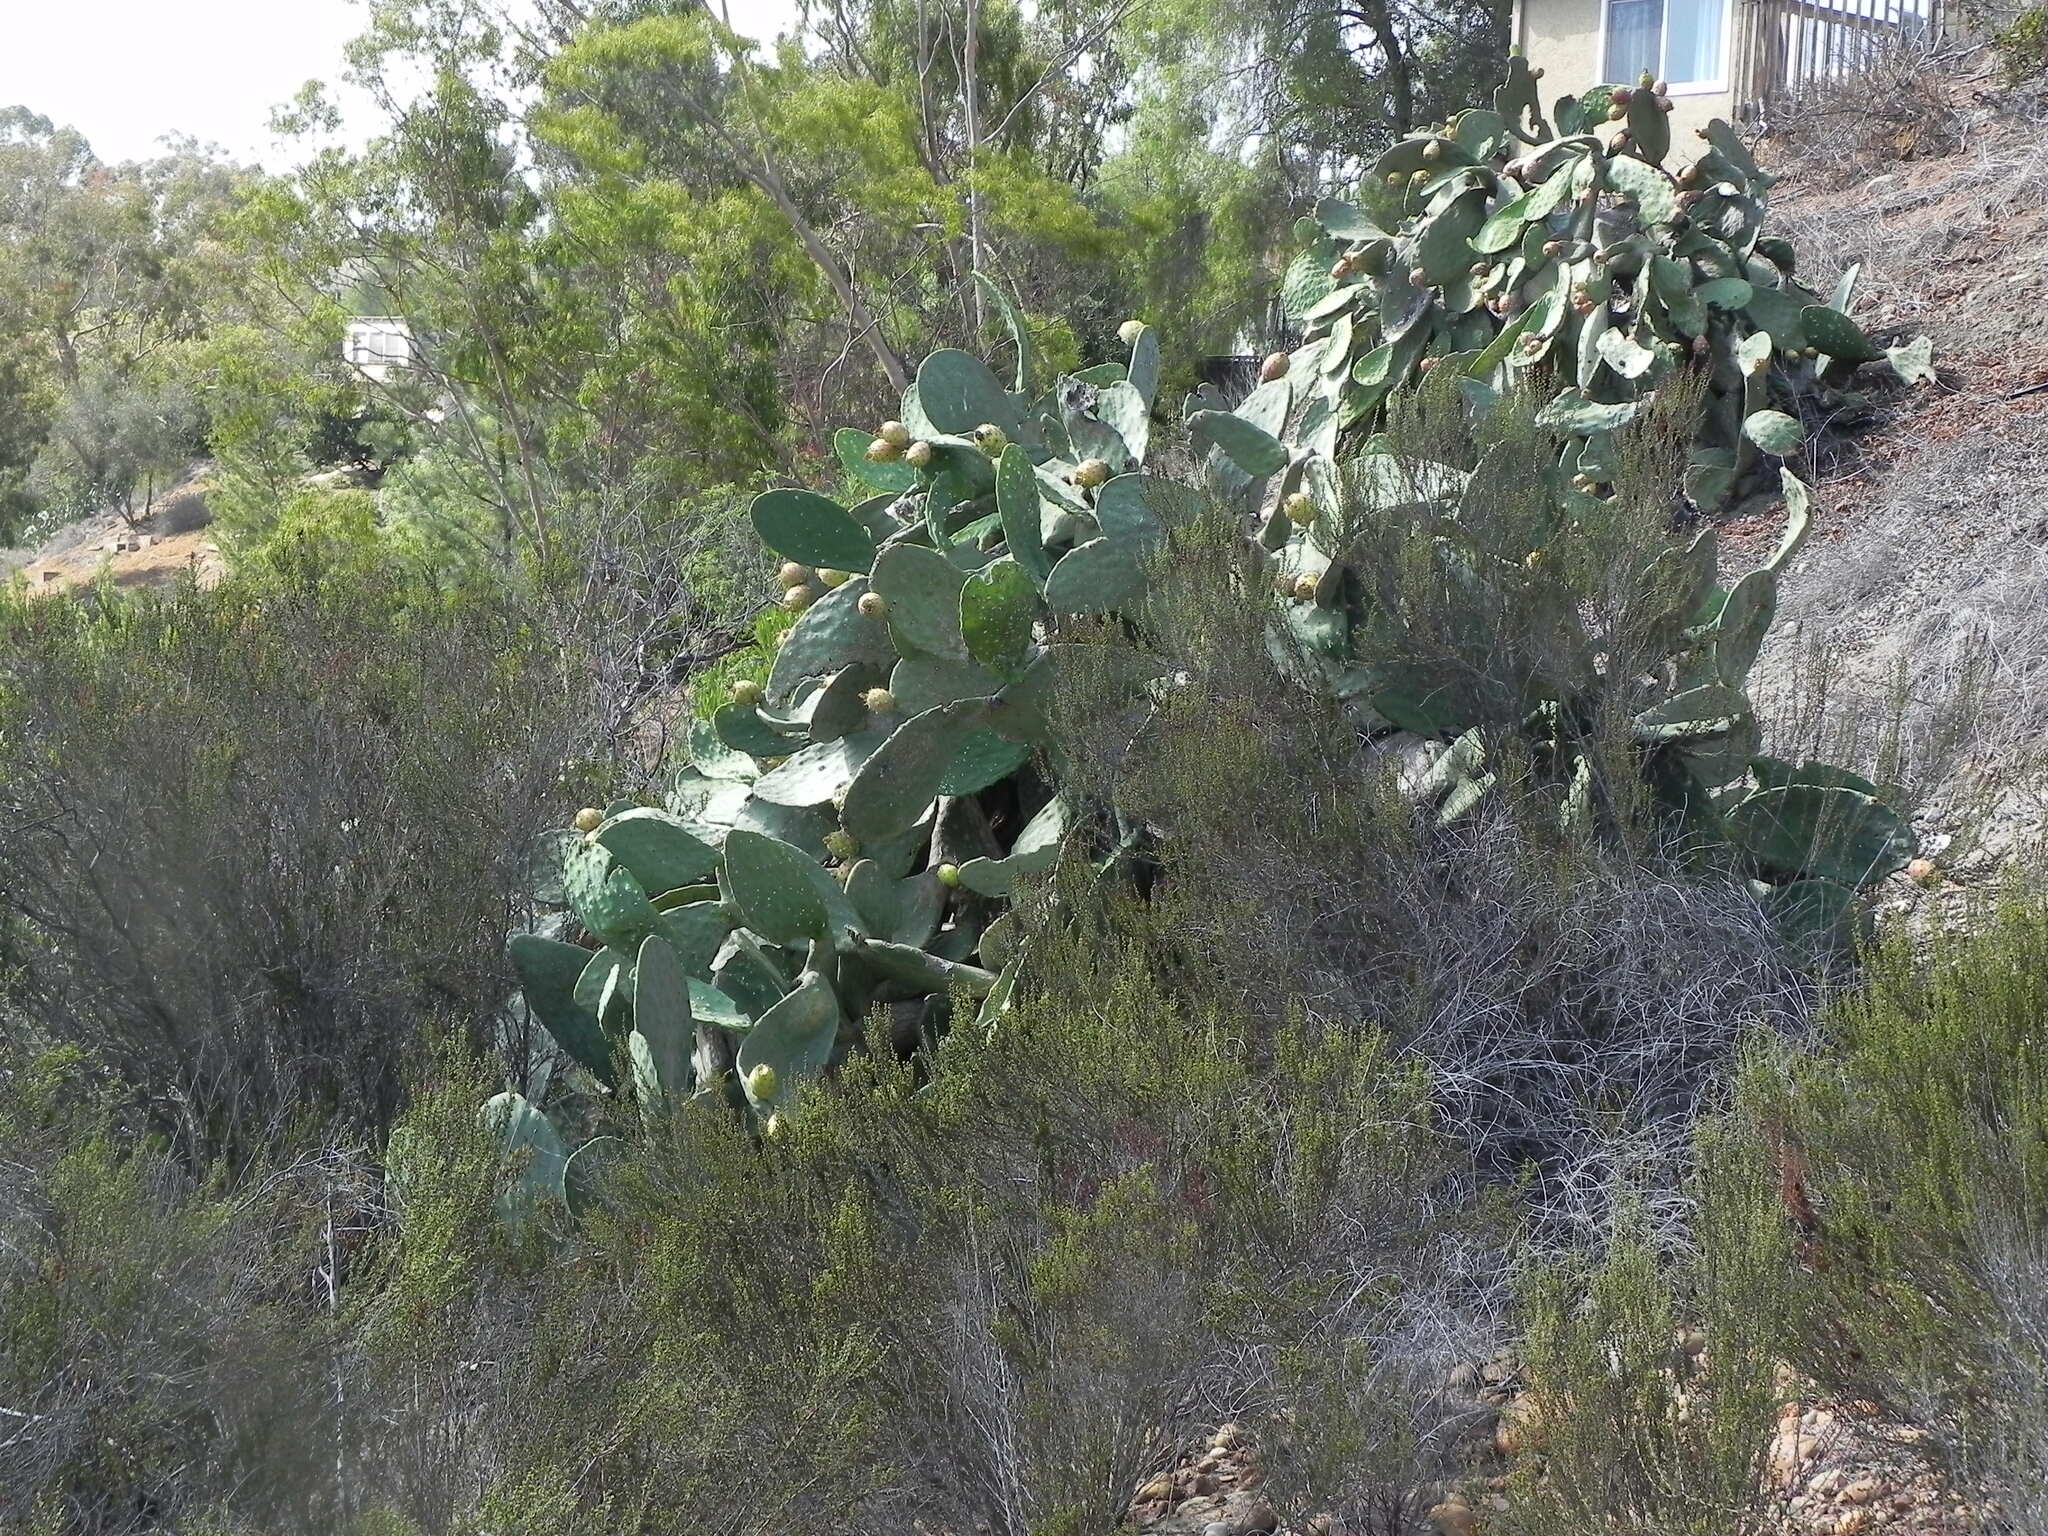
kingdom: Plantae
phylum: Tracheophyta
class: Magnoliopsida
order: Caryophyllales
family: Cactaceae
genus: Opuntia
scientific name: Opuntia ficus-indica
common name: Barbary fig
